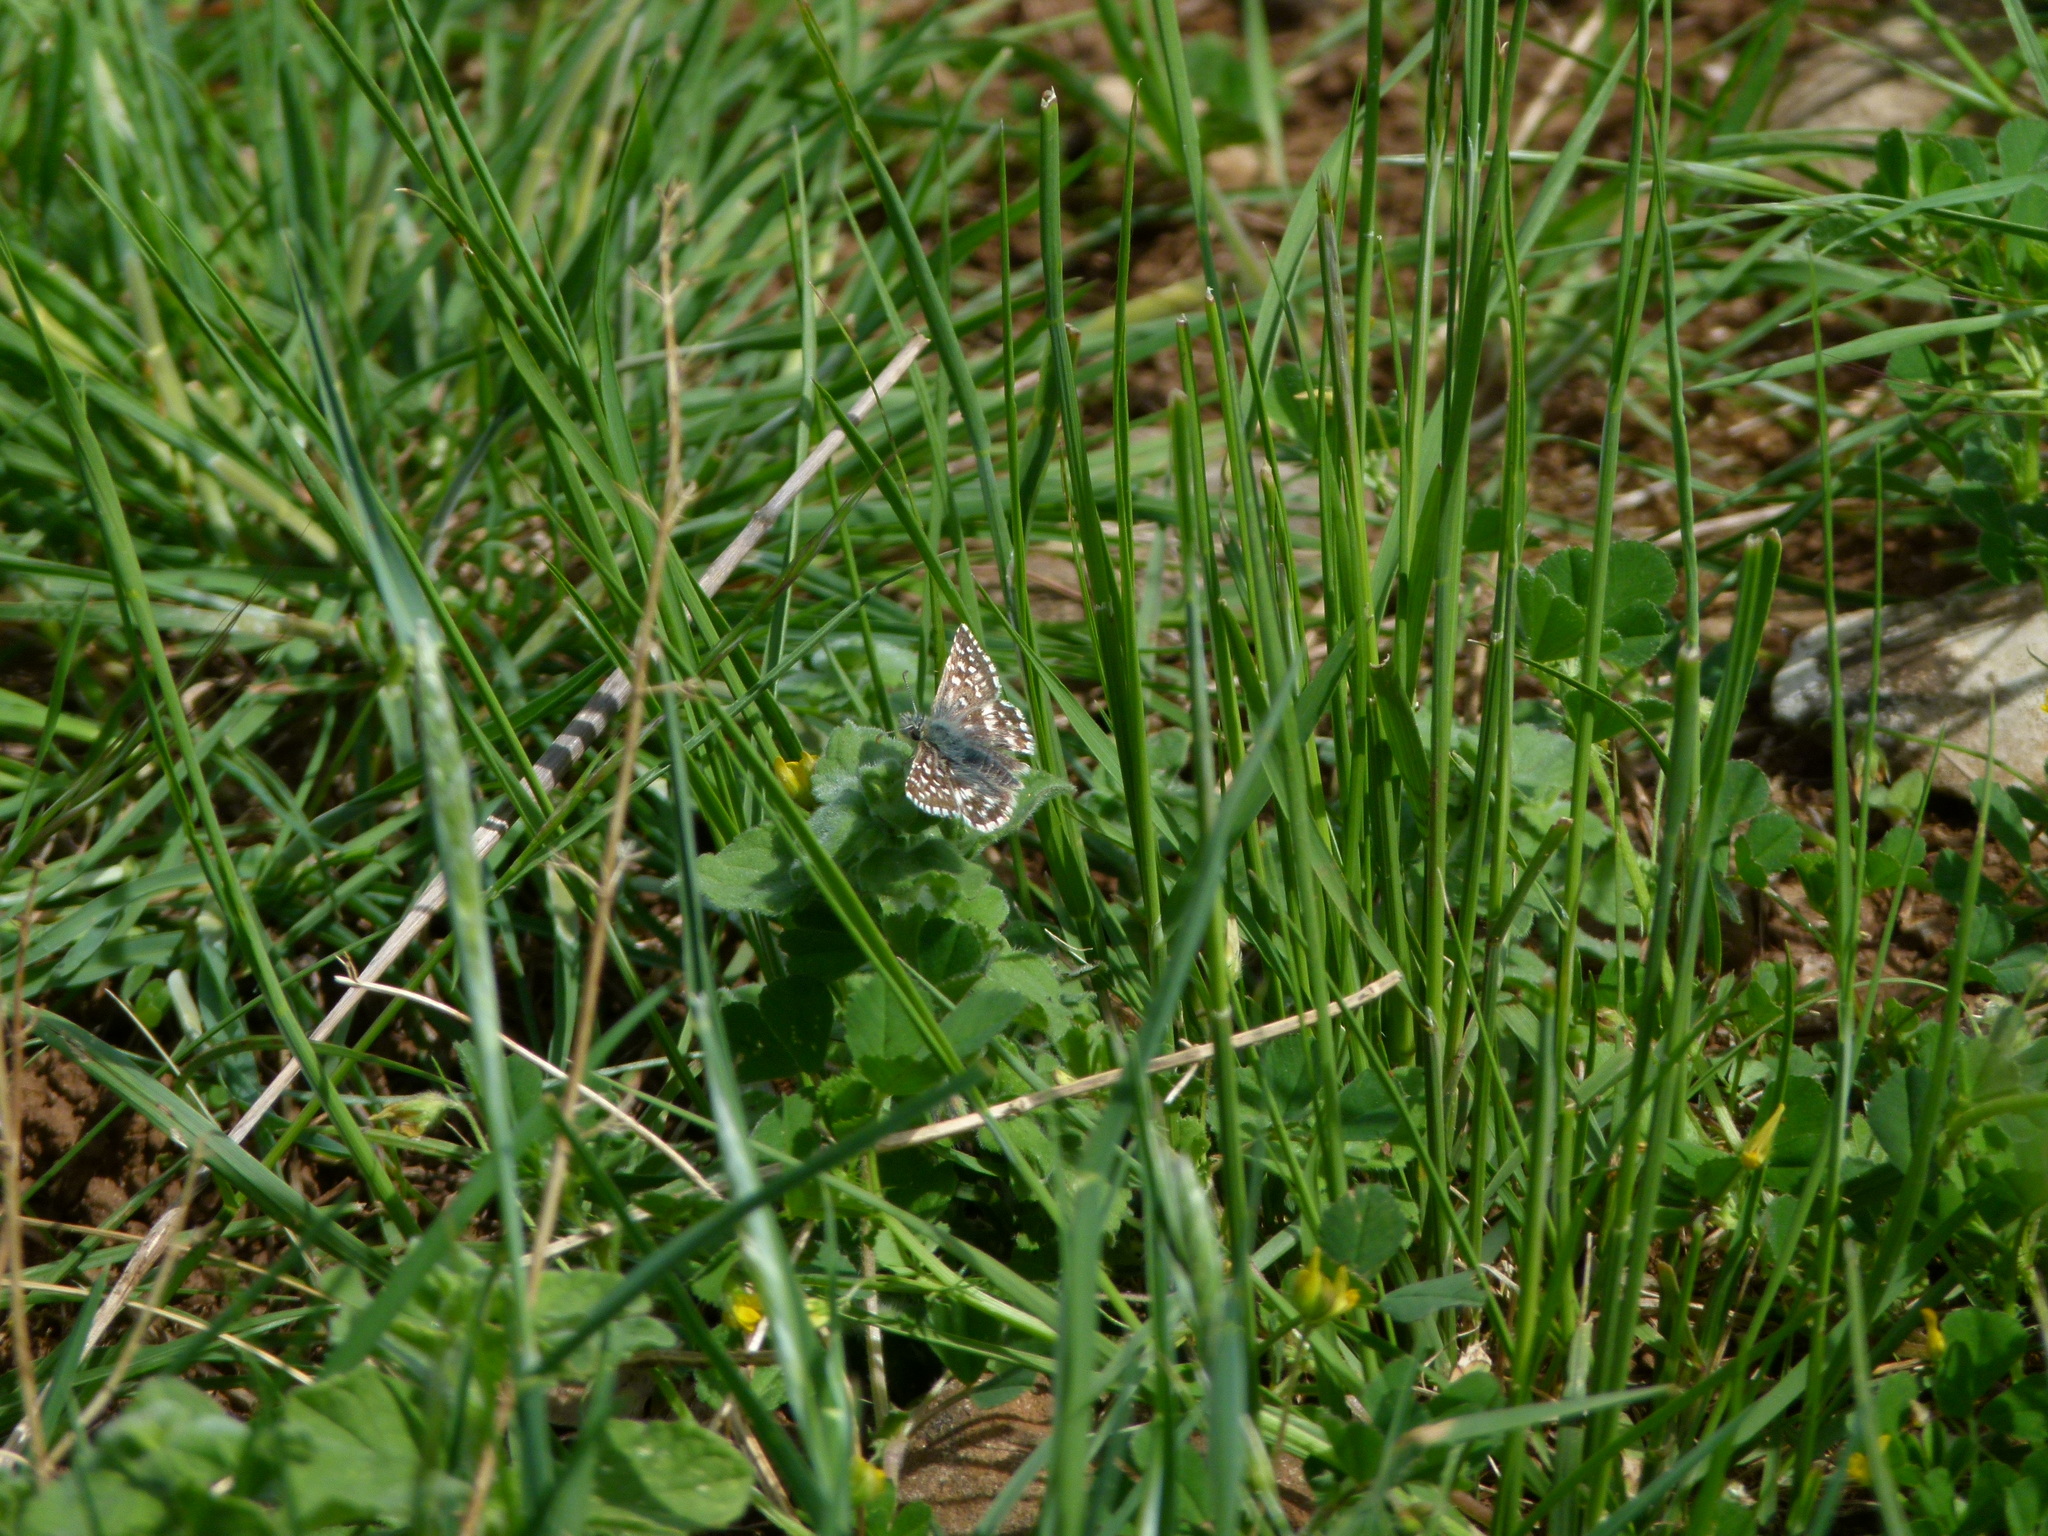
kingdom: Animalia
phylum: Arthropoda
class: Insecta
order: Lepidoptera
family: Hesperiidae
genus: Pyrgus
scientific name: Pyrgus malvoides
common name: Southern grizzled skipper
